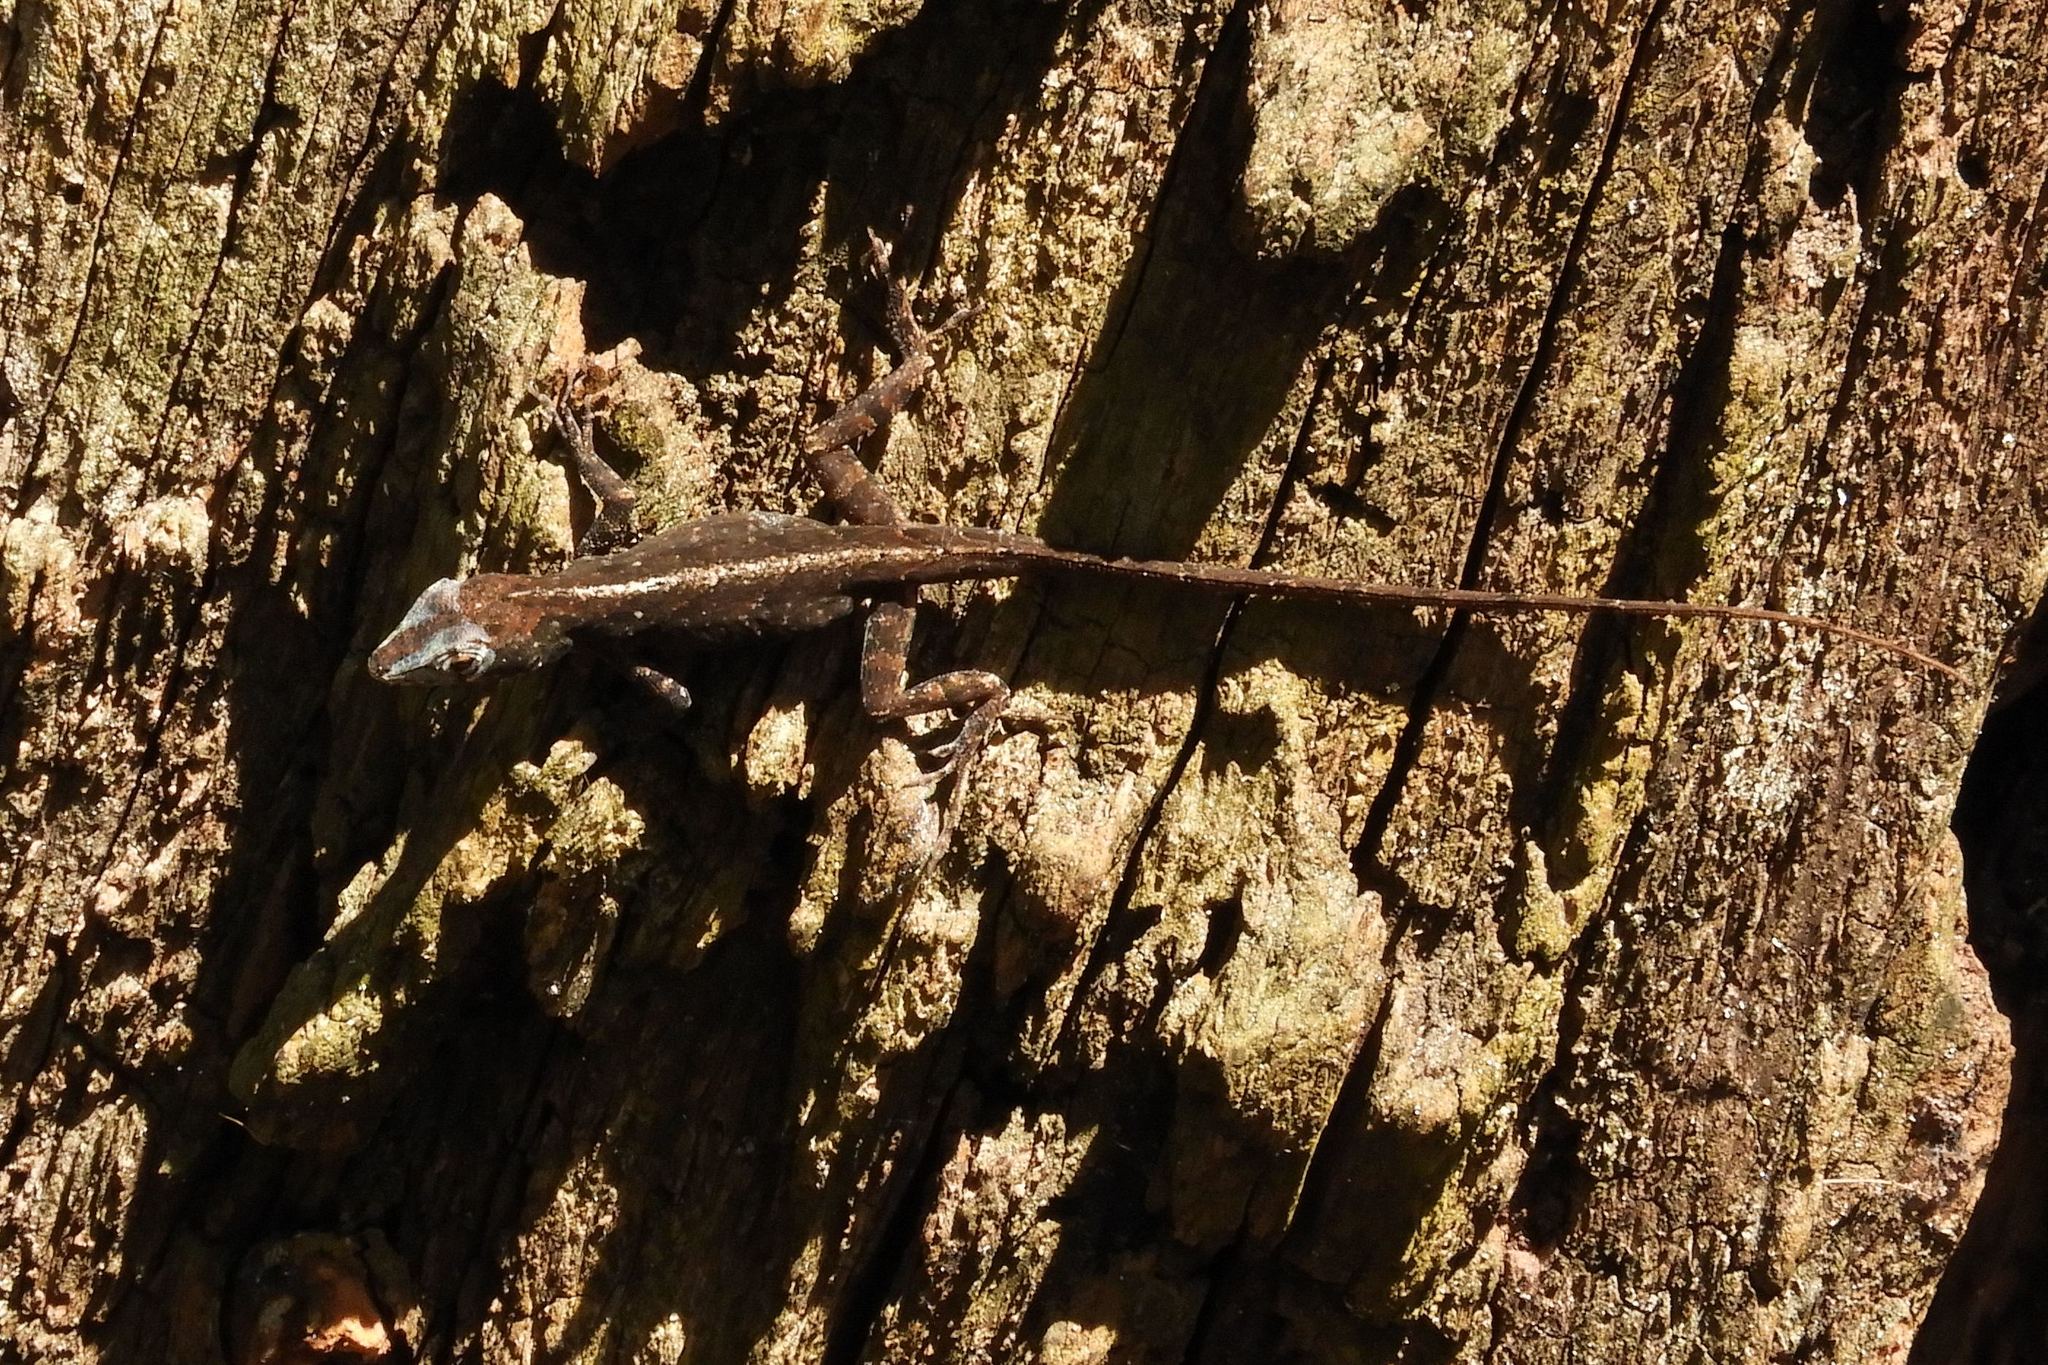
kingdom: Animalia
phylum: Chordata
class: Squamata
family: Dactyloidae
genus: Anolis
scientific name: Anolis sagrei
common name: Brown anole
